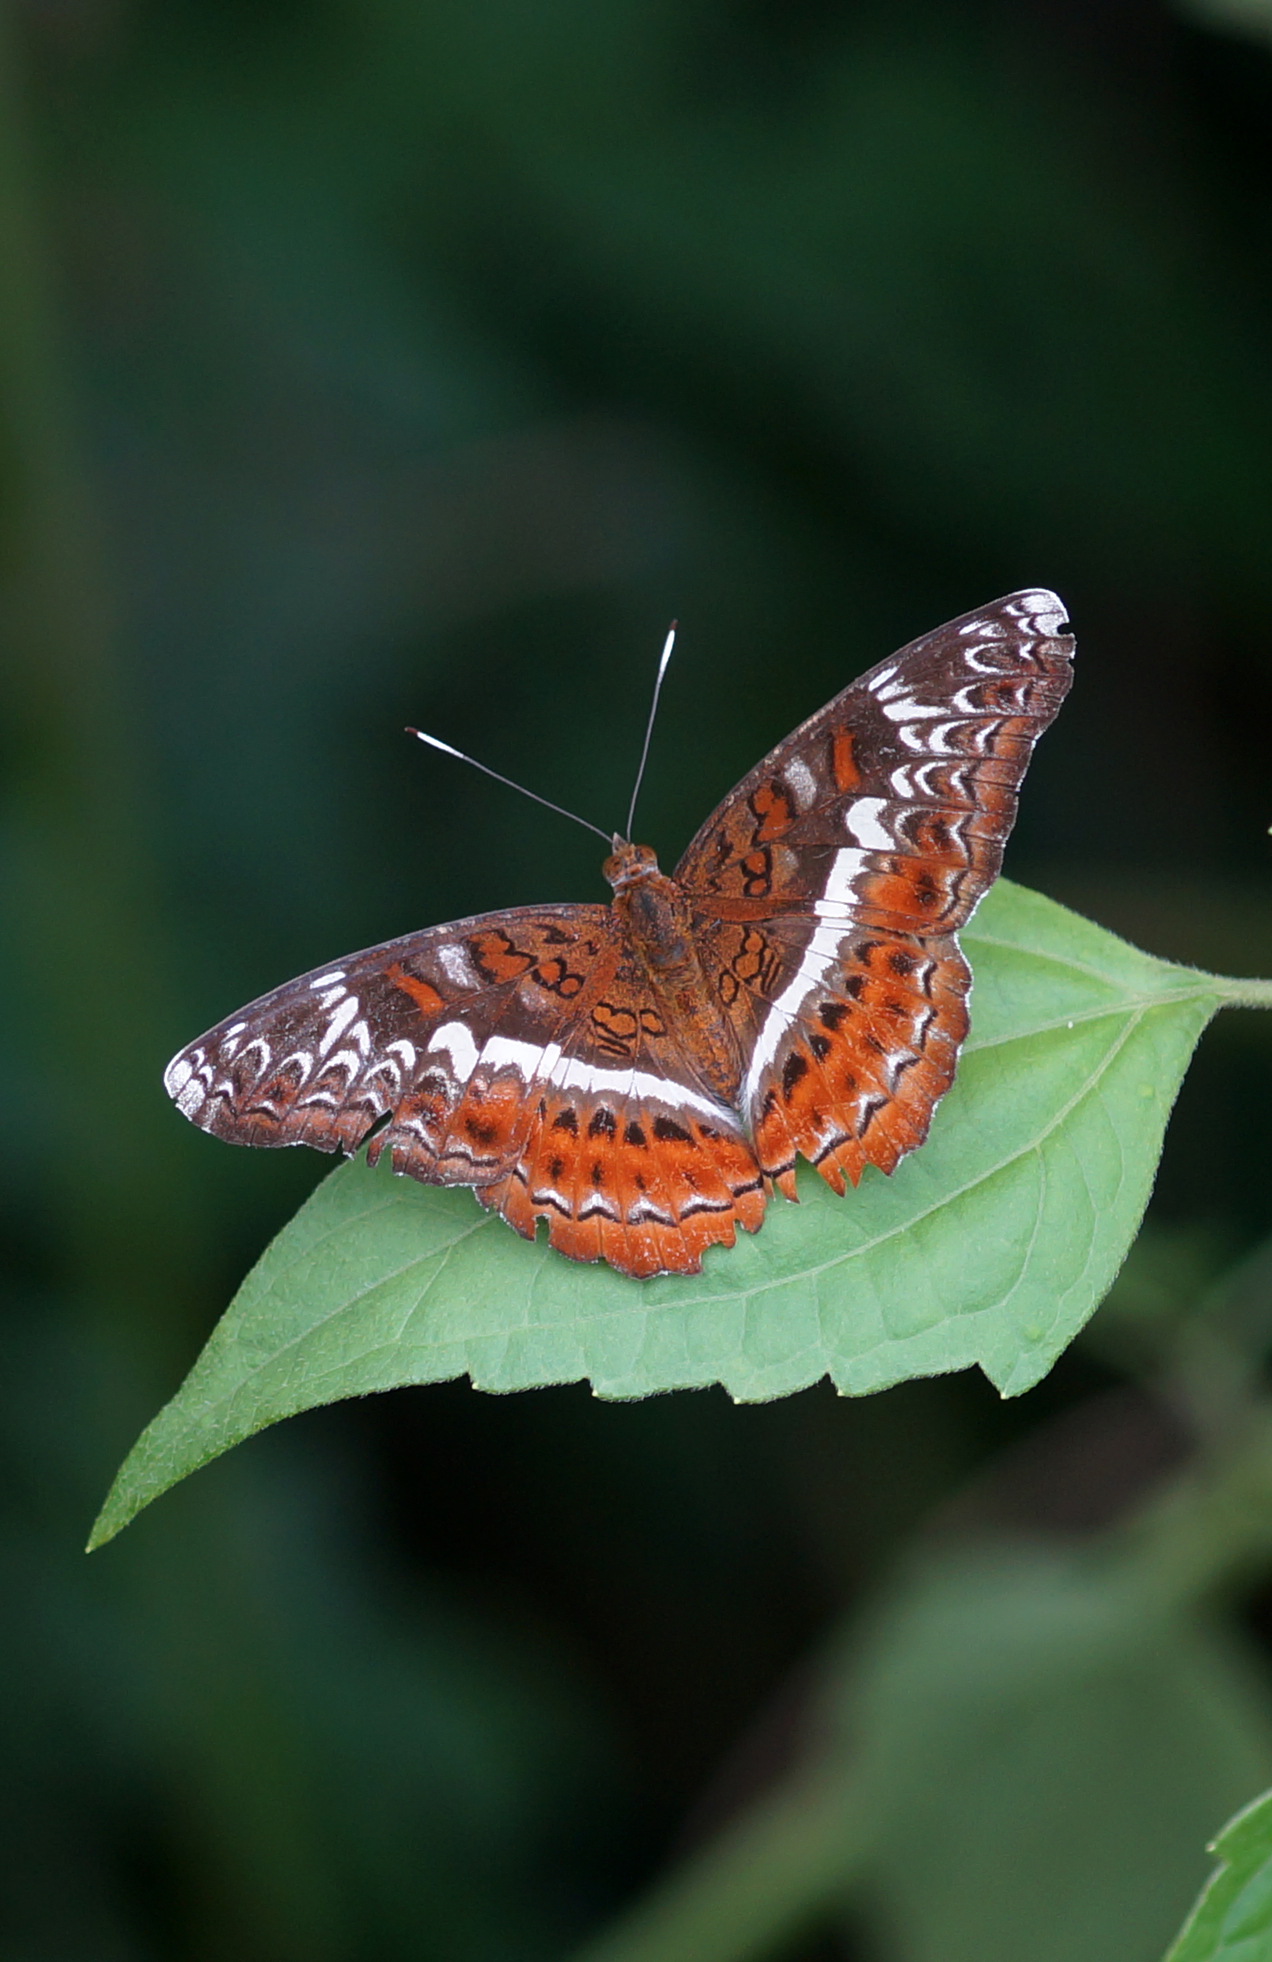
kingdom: Animalia
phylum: Arthropoda
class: Insecta
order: Lepidoptera
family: Nymphalidae
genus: Lebadea
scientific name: Lebadea martha
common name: Knight
